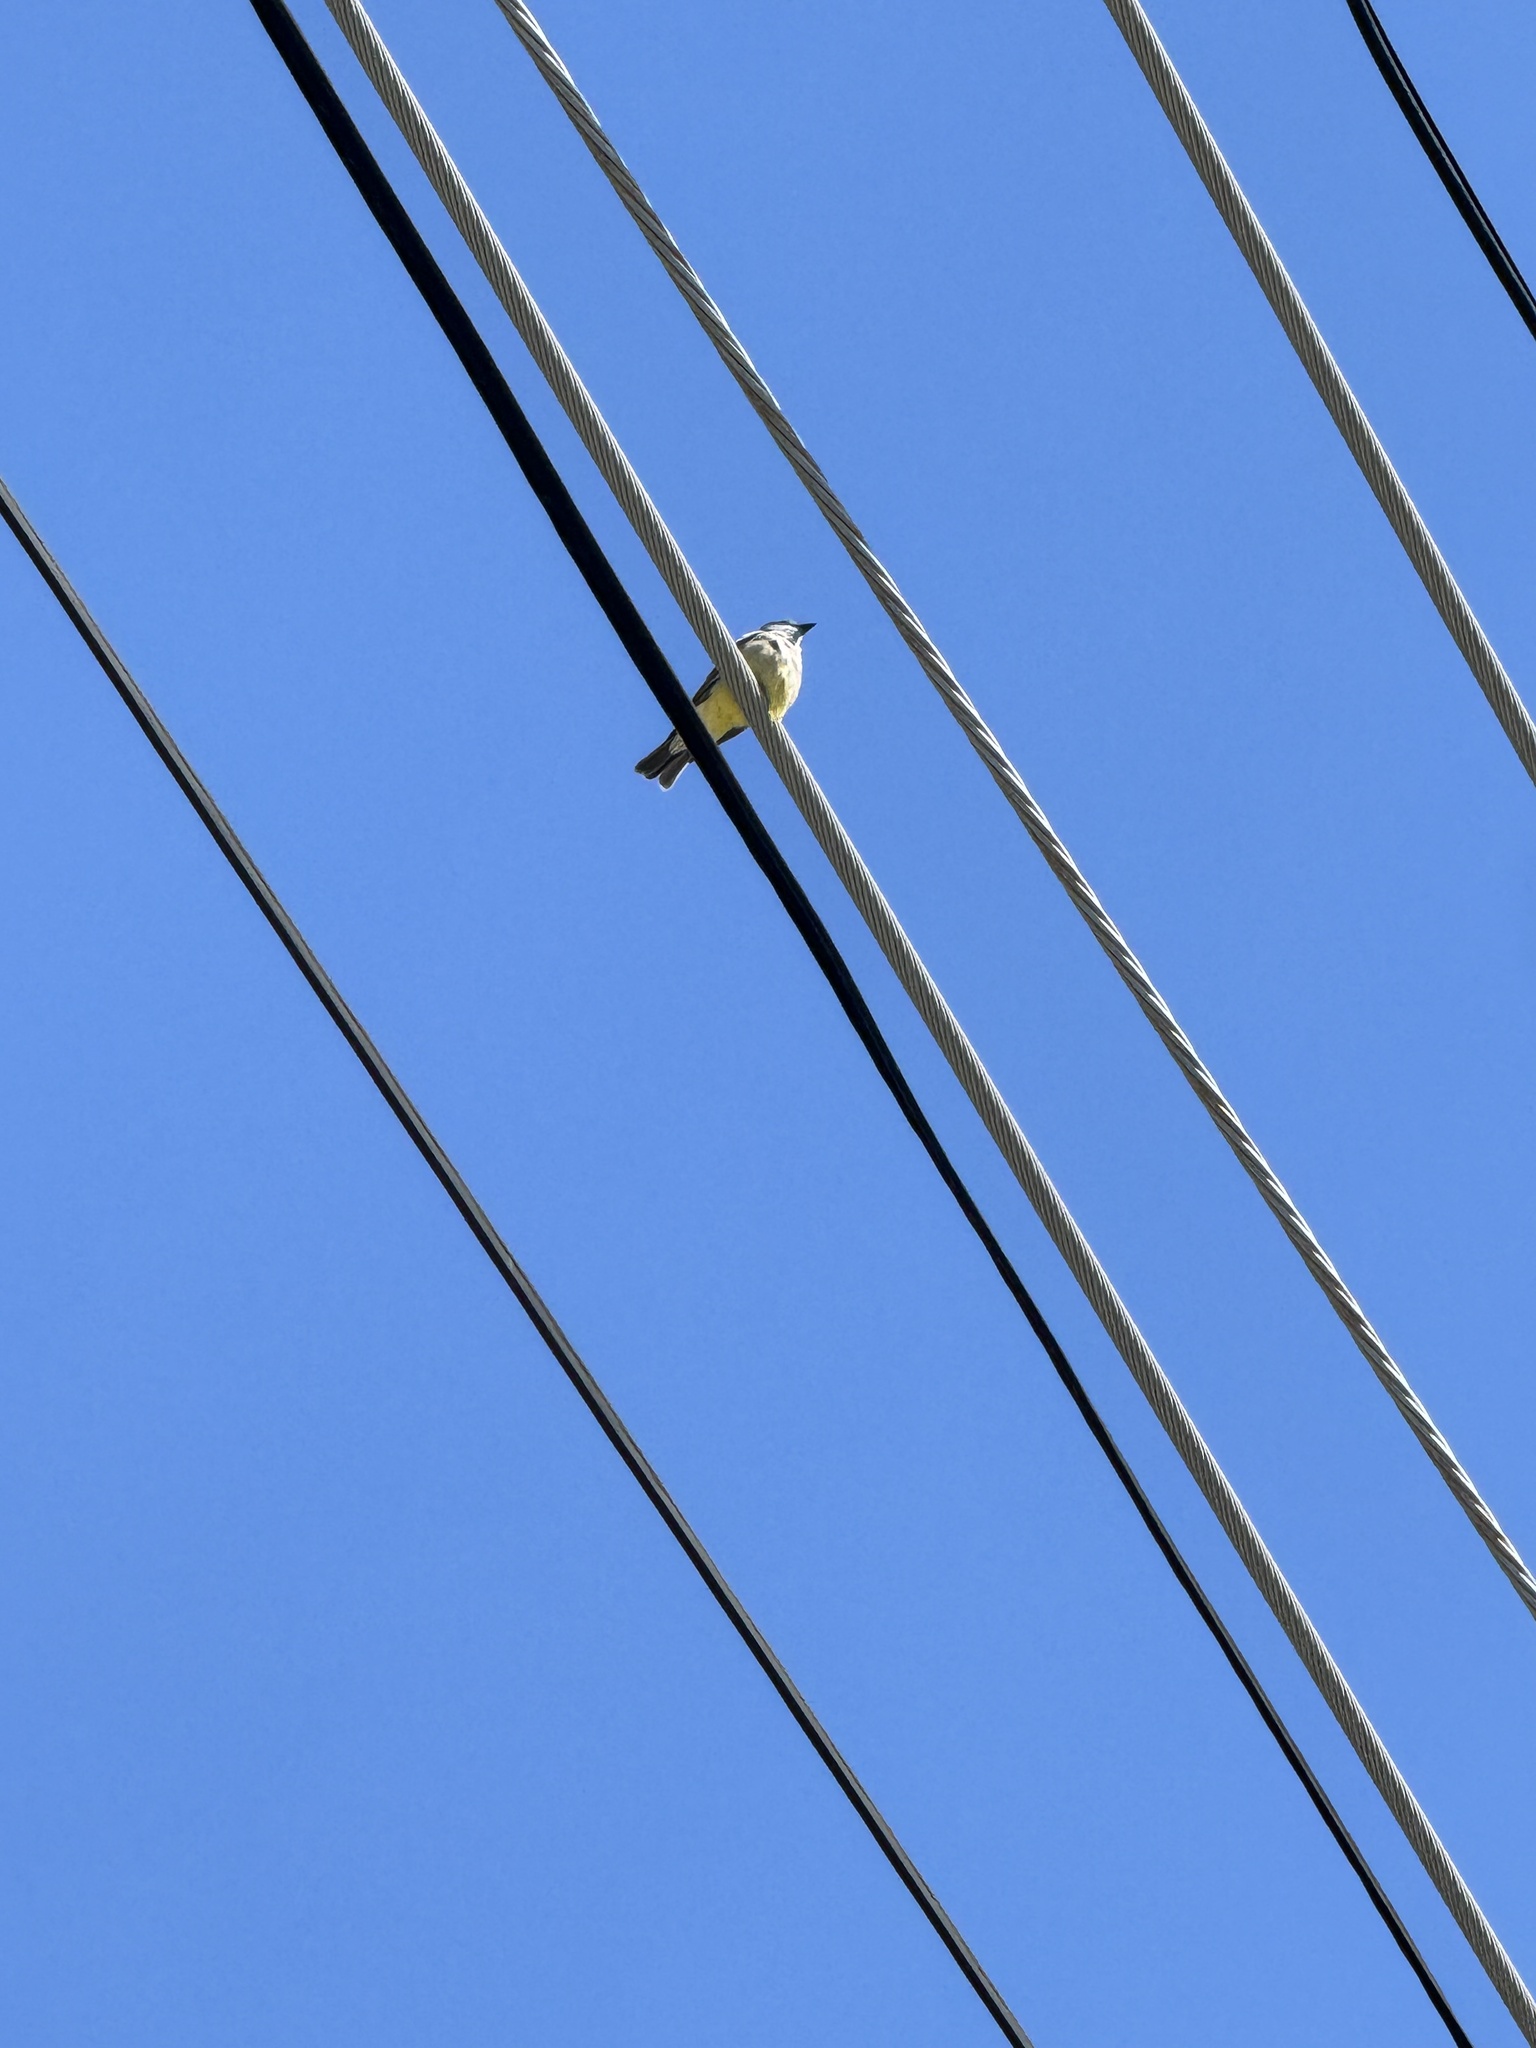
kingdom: Animalia
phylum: Chordata
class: Aves
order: Passeriformes
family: Tyrannidae
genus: Tyrannus
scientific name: Tyrannus vociferans
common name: Cassin's kingbird
